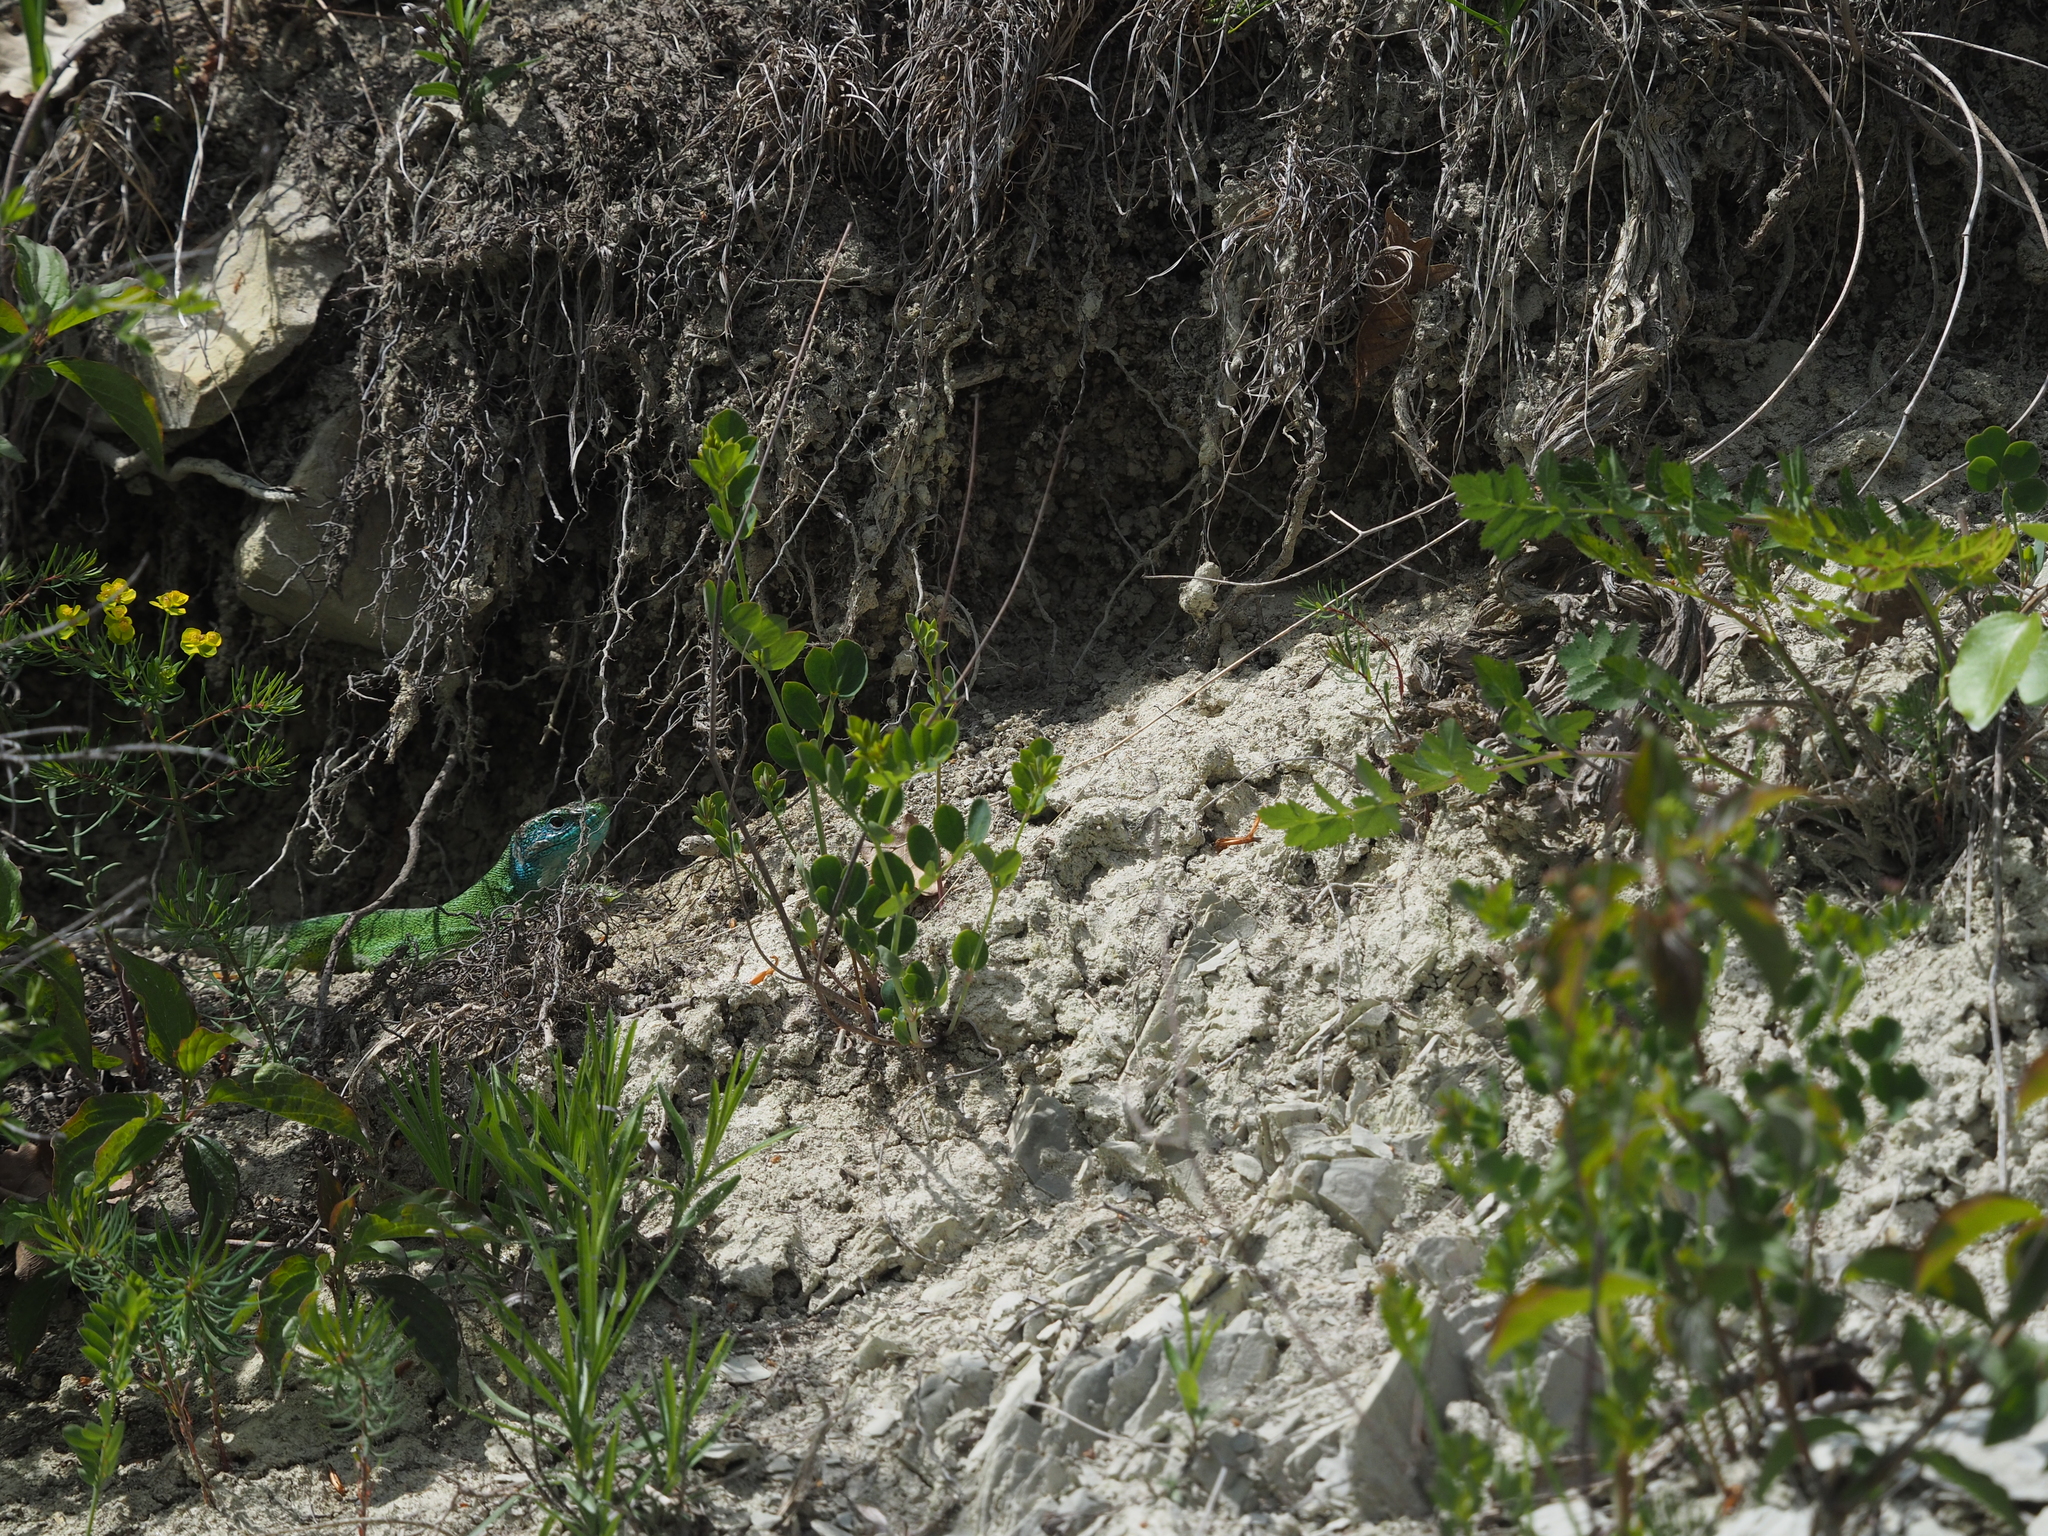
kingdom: Animalia
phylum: Chordata
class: Squamata
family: Lacertidae
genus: Lacerta
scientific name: Lacerta viridis
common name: European green lizard
